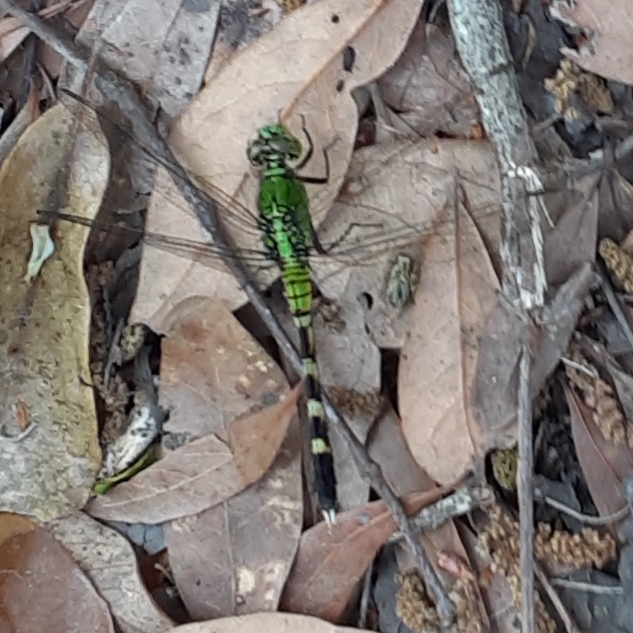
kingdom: Animalia
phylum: Arthropoda
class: Insecta
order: Odonata
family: Libellulidae
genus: Erythemis
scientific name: Erythemis simplicicollis
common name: Eastern pondhawk
